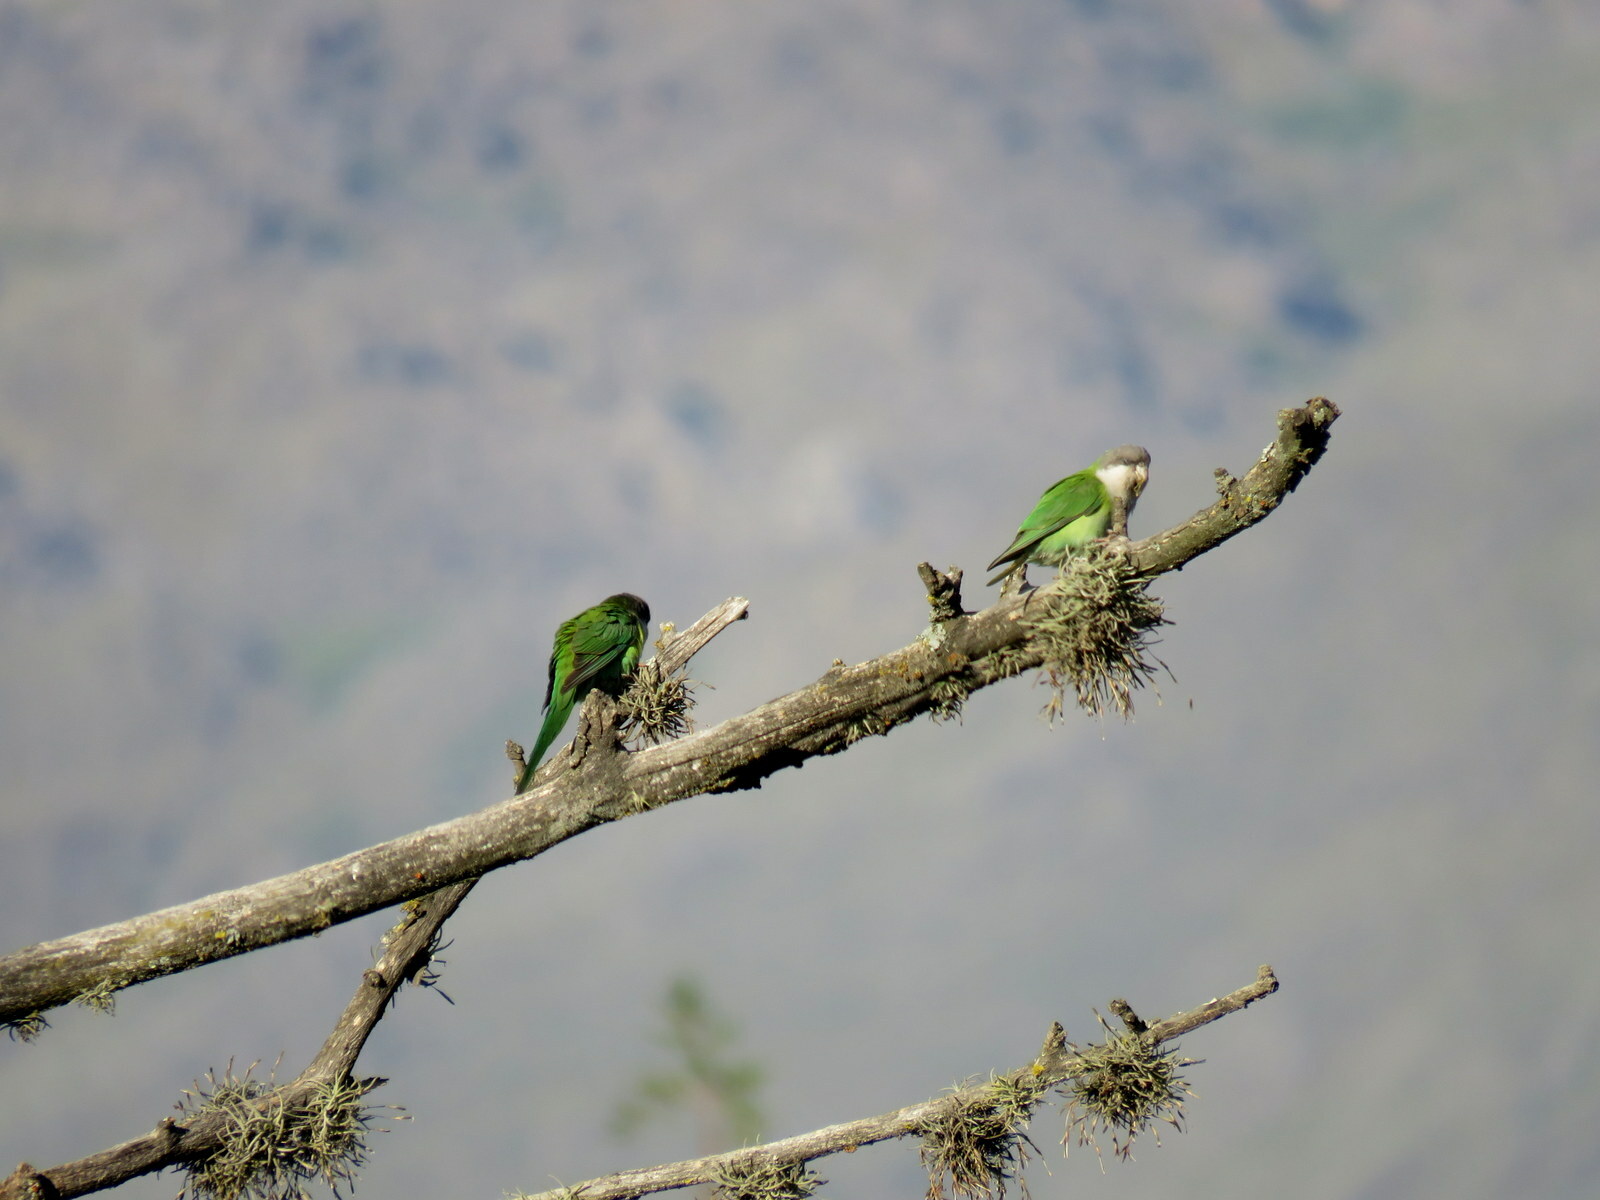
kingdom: Animalia
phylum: Chordata
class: Aves
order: Psittaciformes
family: Psittacidae
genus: Psilopsiagon
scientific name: Psilopsiagon aymara
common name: Grey-hooded parakeet
